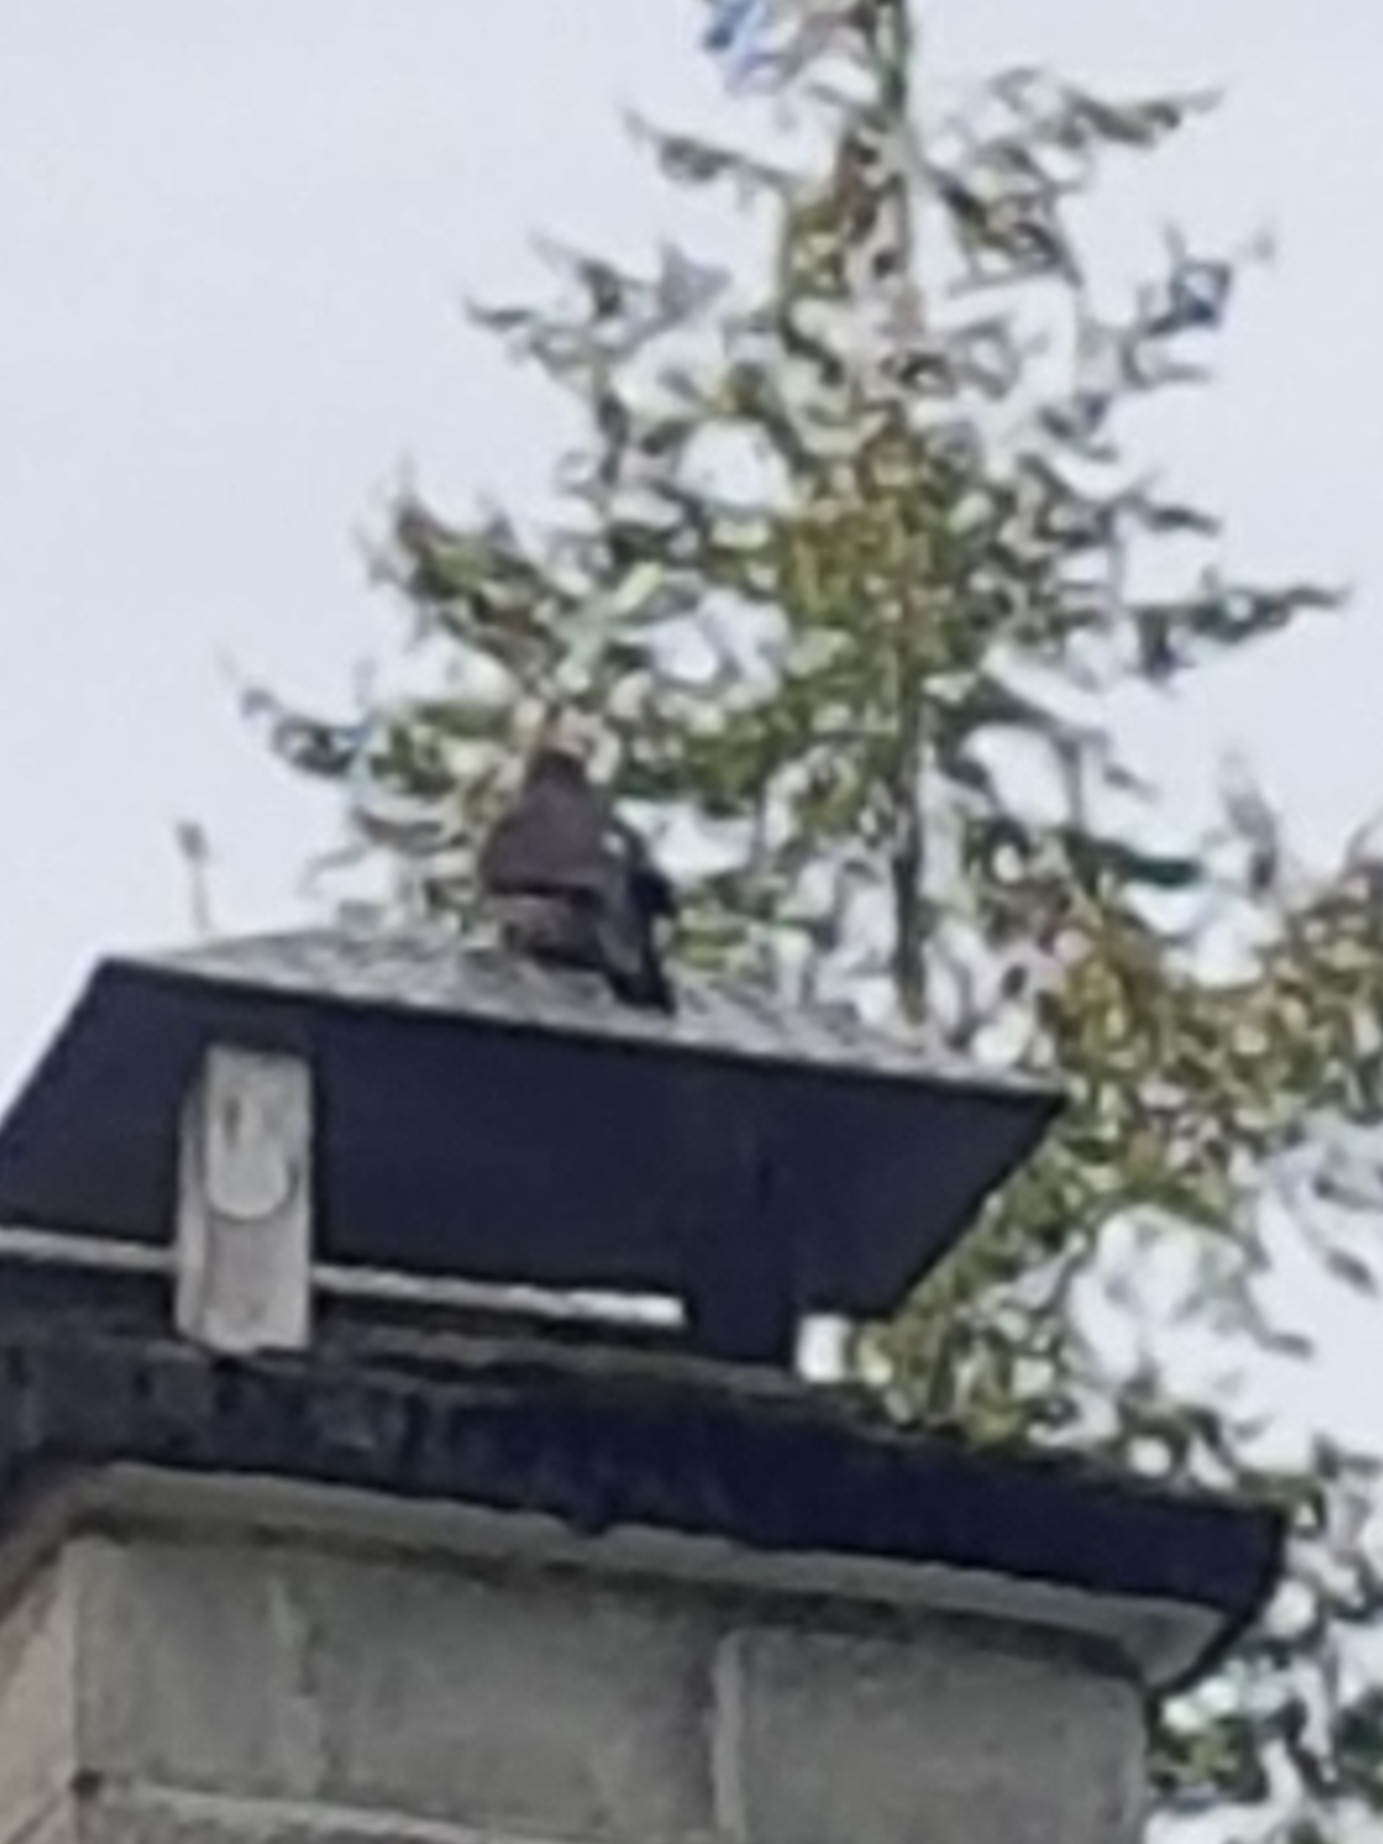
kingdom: Animalia
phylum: Chordata
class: Aves
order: Piciformes
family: Picidae
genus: Colaptes
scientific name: Colaptes auratus
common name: Northern flicker
